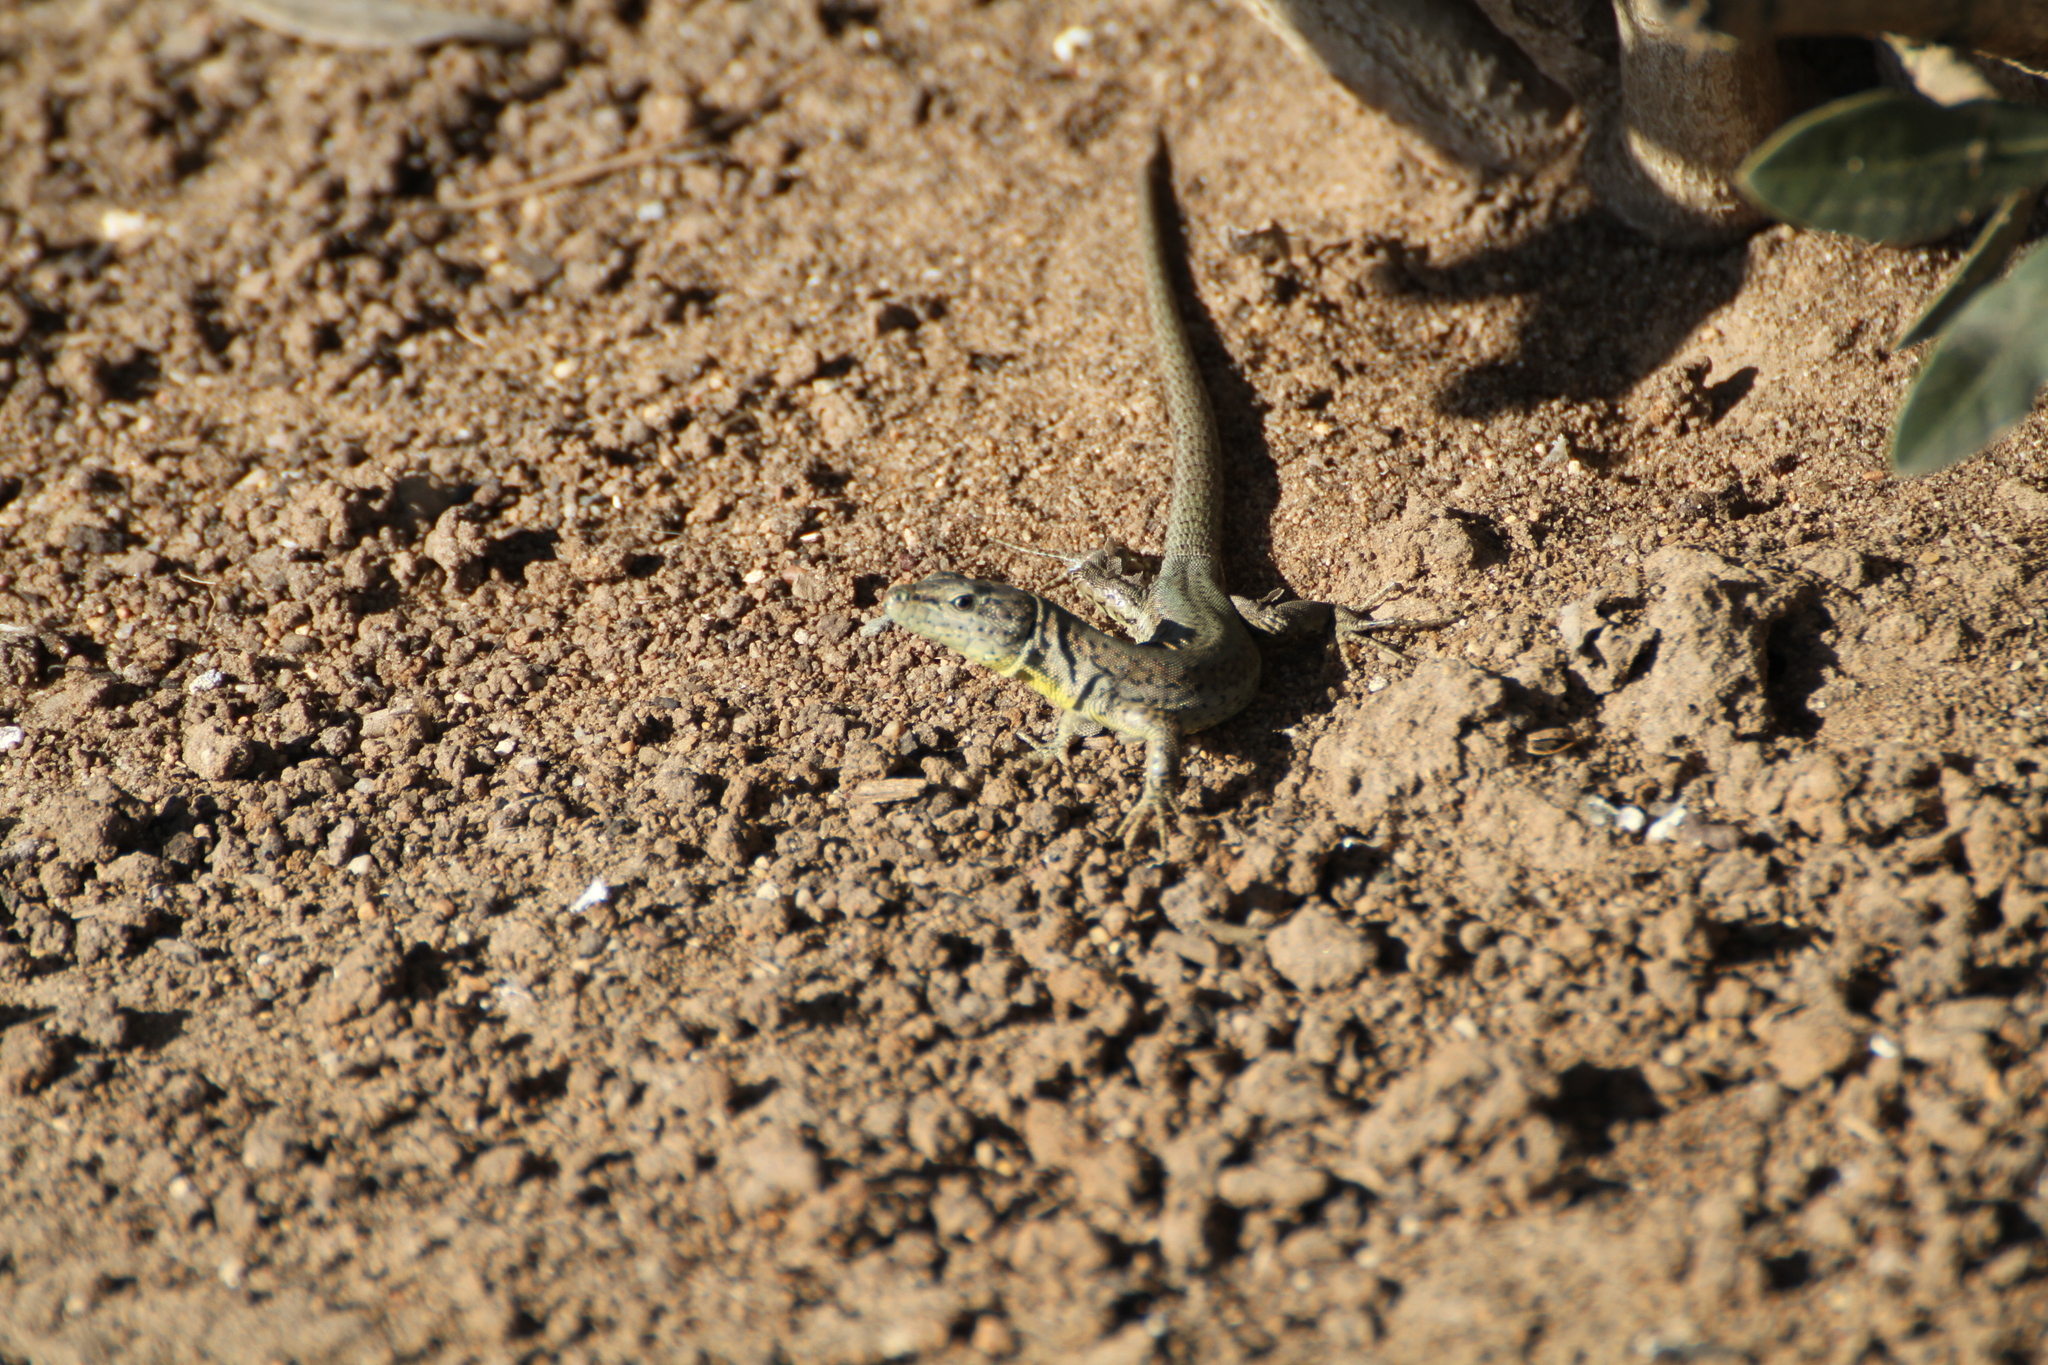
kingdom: Animalia
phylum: Chordata
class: Squamata
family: Lacertidae
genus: Podarcis
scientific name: Podarcis vaucheri
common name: Vaucher's wall lizard
